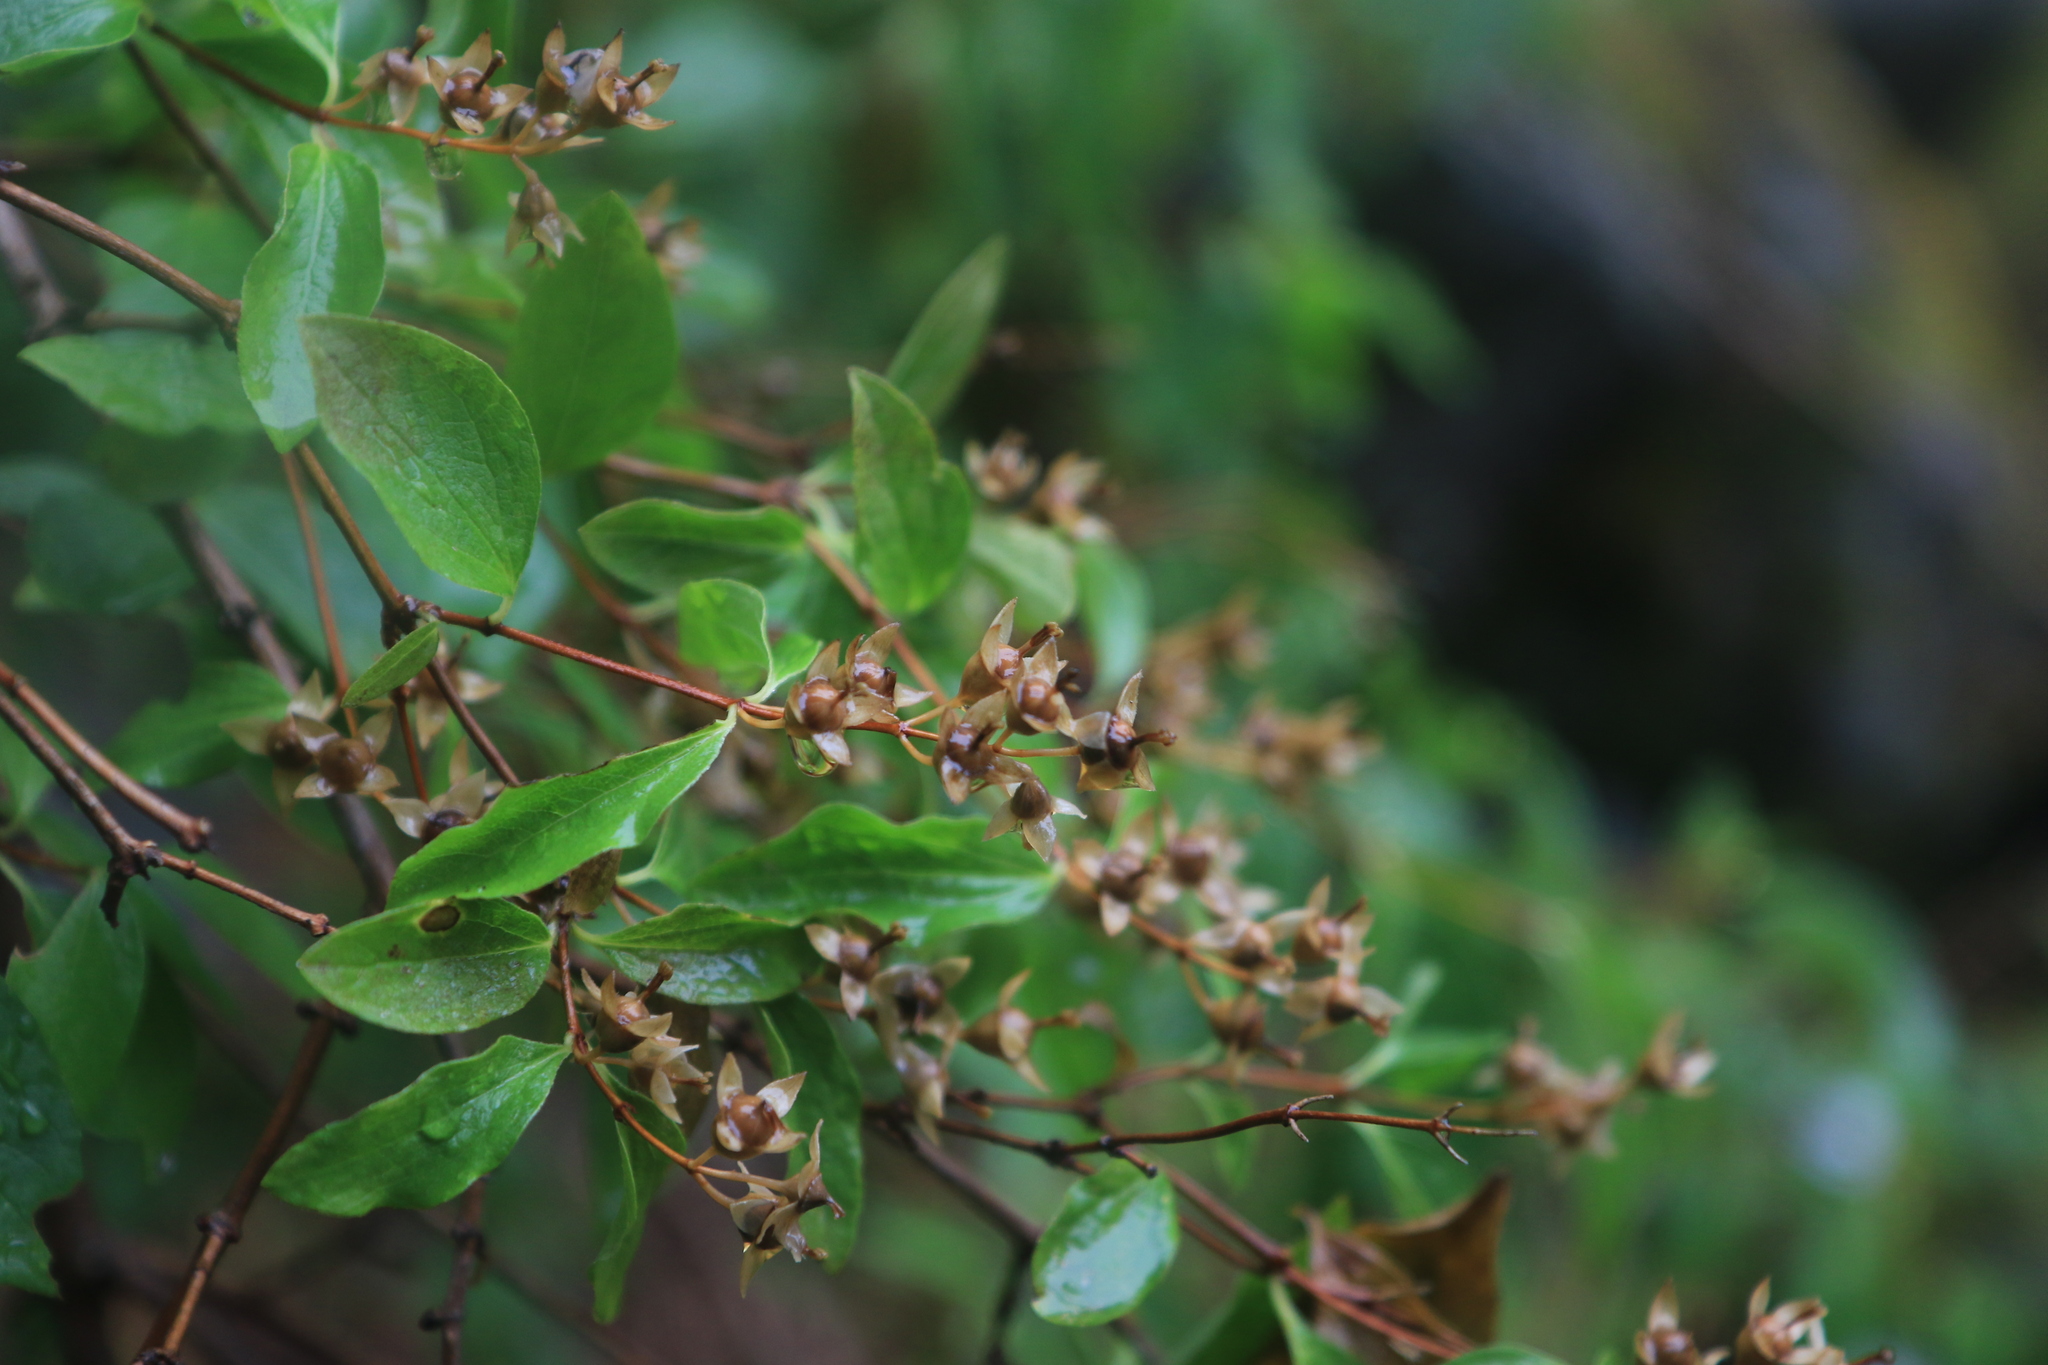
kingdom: Plantae
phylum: Tracheophyta
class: Magnoliopsida
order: Cornales
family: Hydrangeaceae
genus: Philadelphus
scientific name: Philadelphus lewisii
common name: Lewis's mock orange
